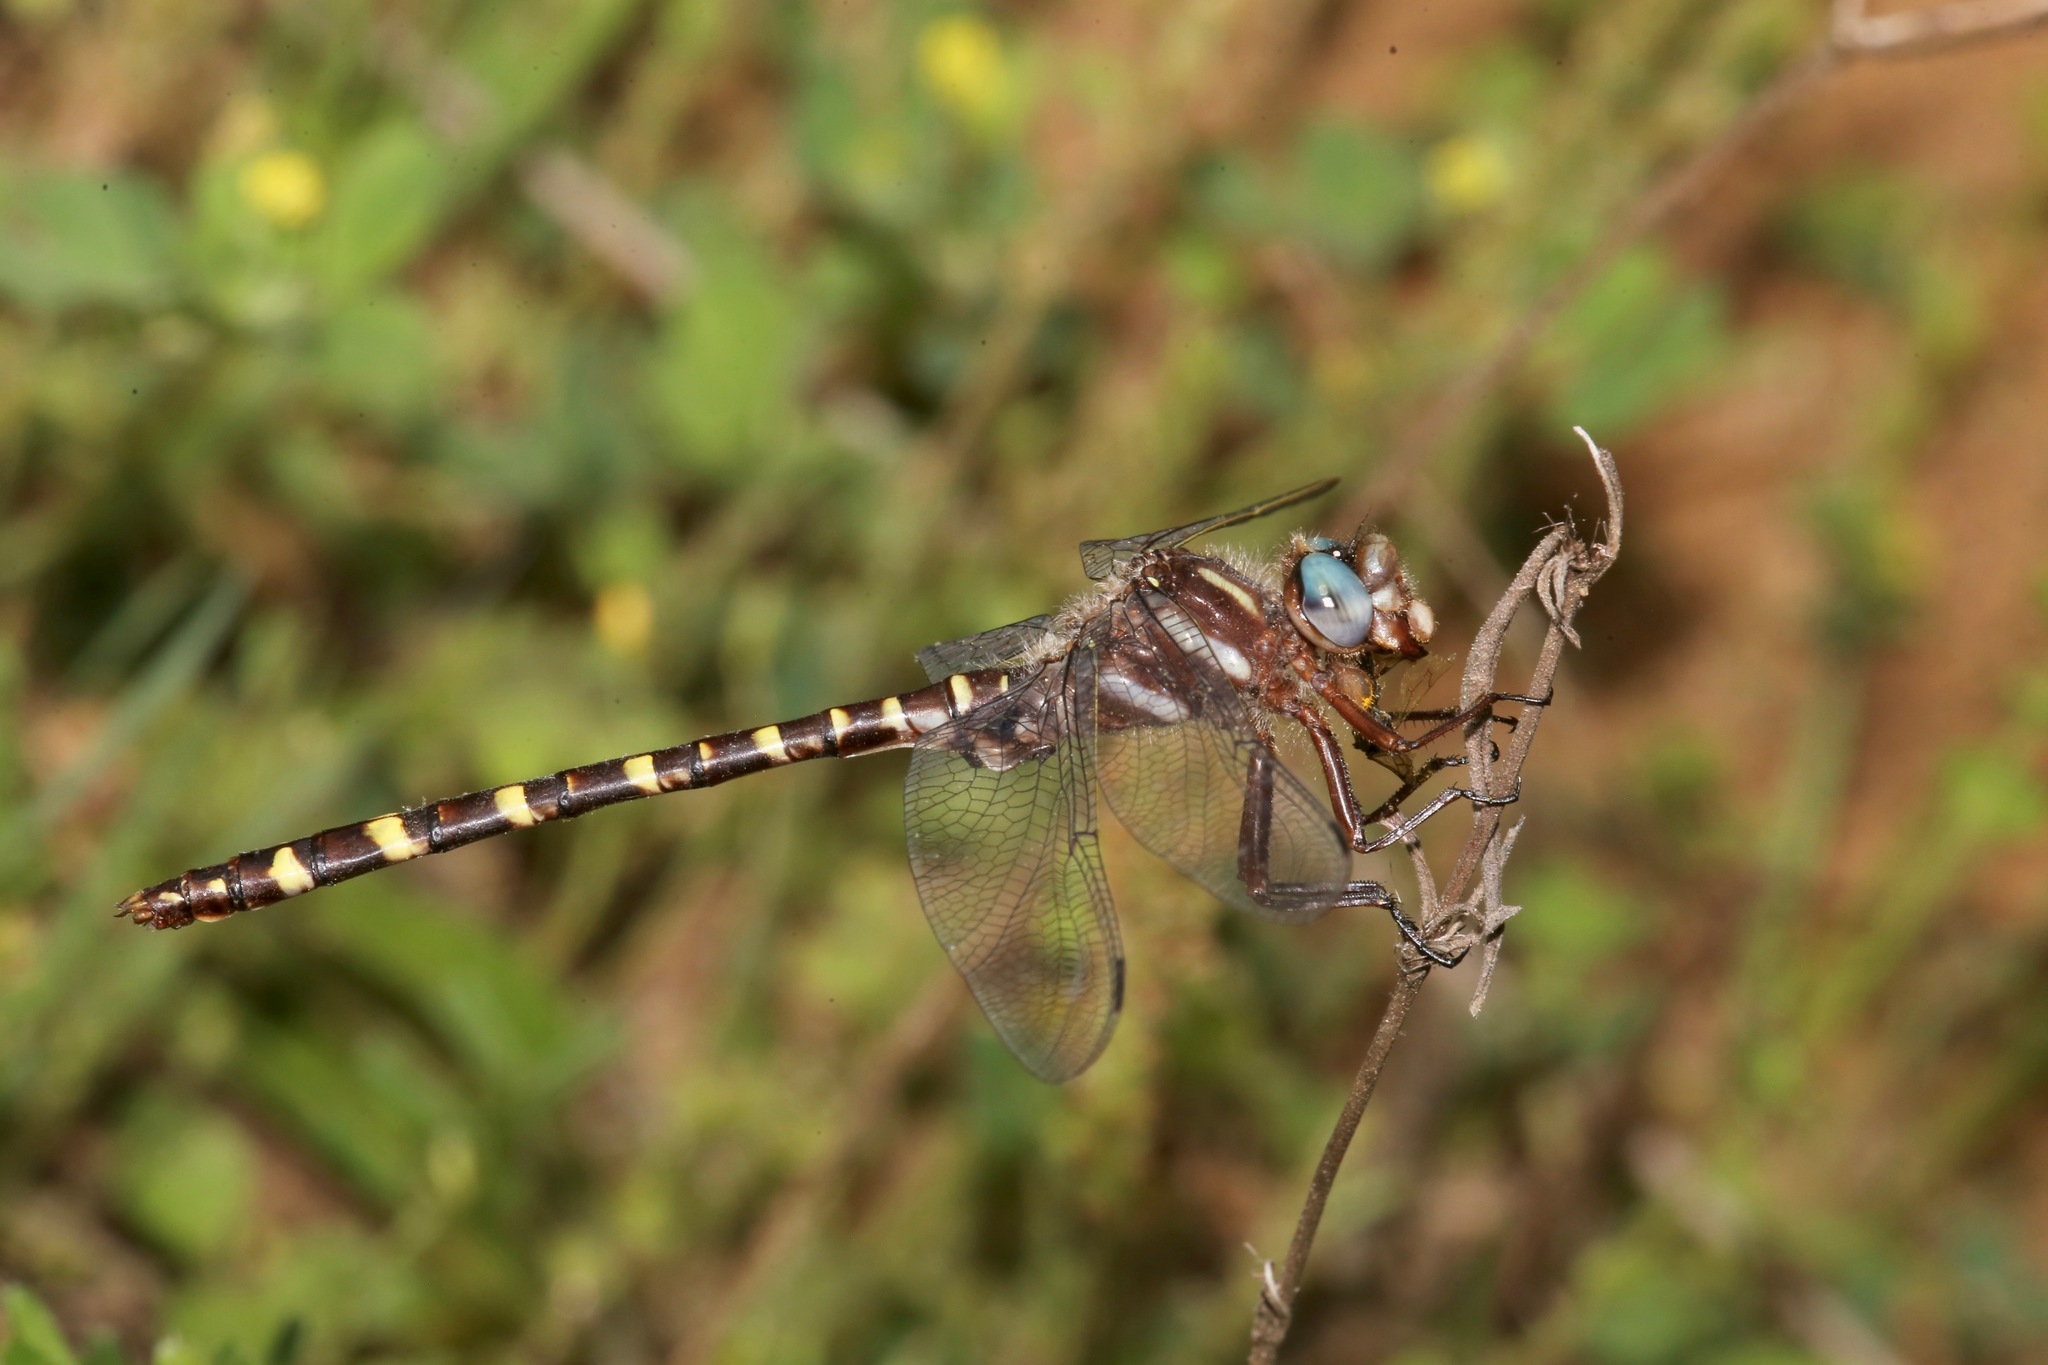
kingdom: Animalia
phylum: Arthropoda
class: Insecta
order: Odonata
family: Cordulegastridae
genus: Cordulegaster
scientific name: Cordulegaster sarracenia
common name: Sarracenia spiketail
